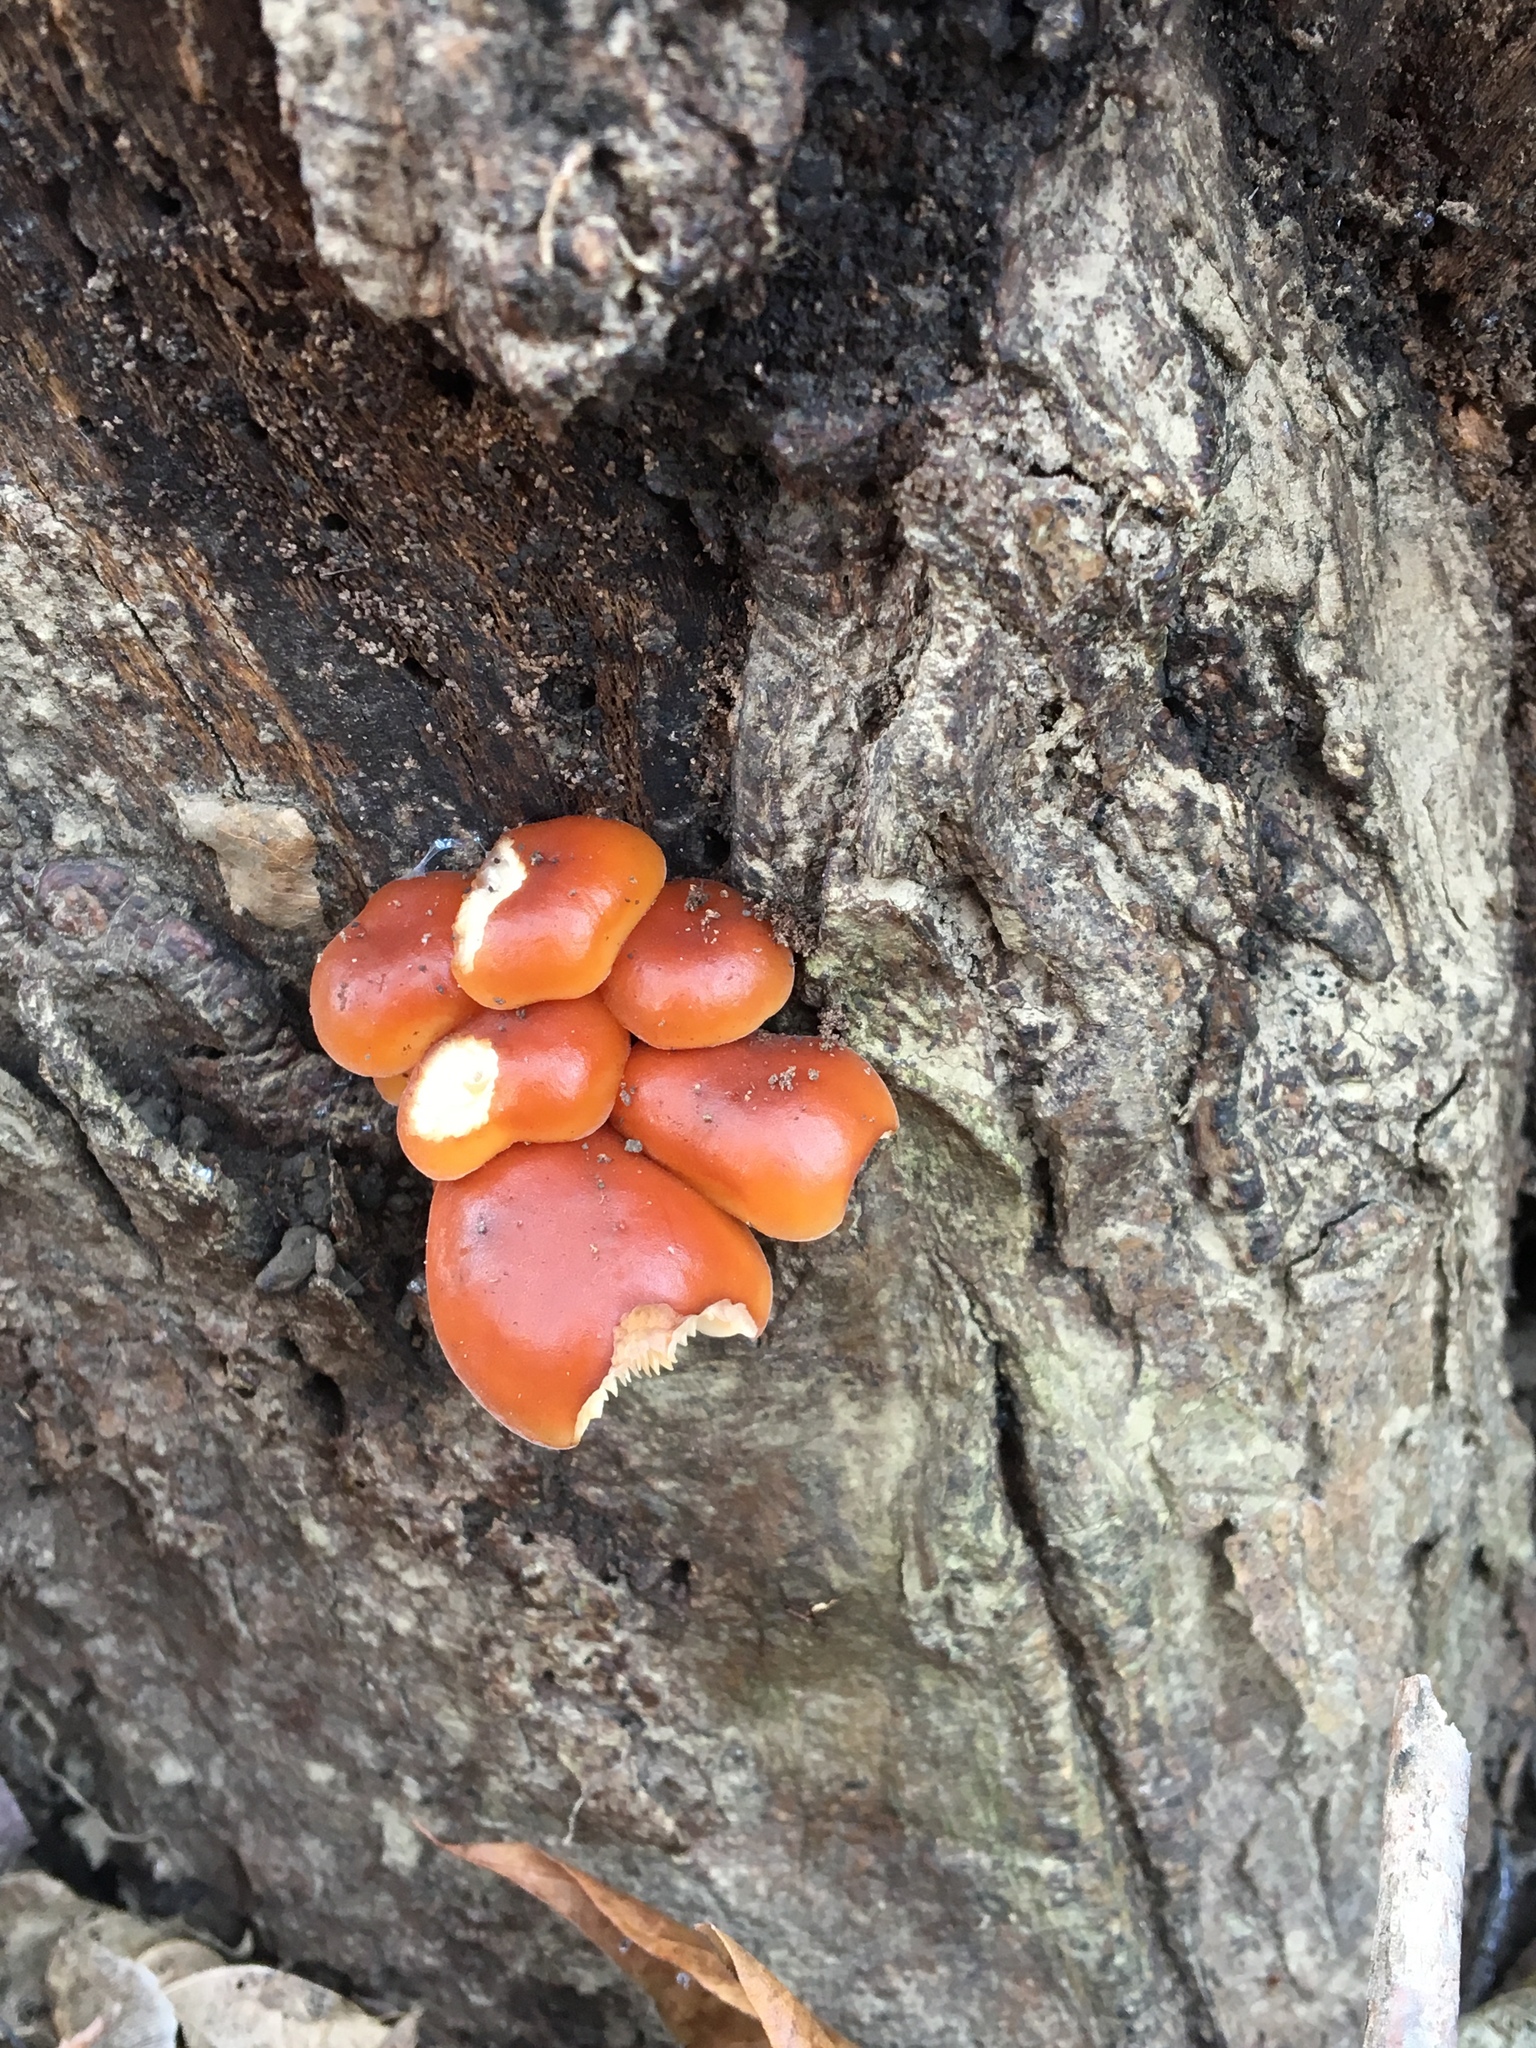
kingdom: Fungi
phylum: Basidiomycota
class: Agaricomycetes
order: Agaricales
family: Physalacriaceae
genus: Flammulina
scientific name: Flammulina velutipes
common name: Velvet shank
